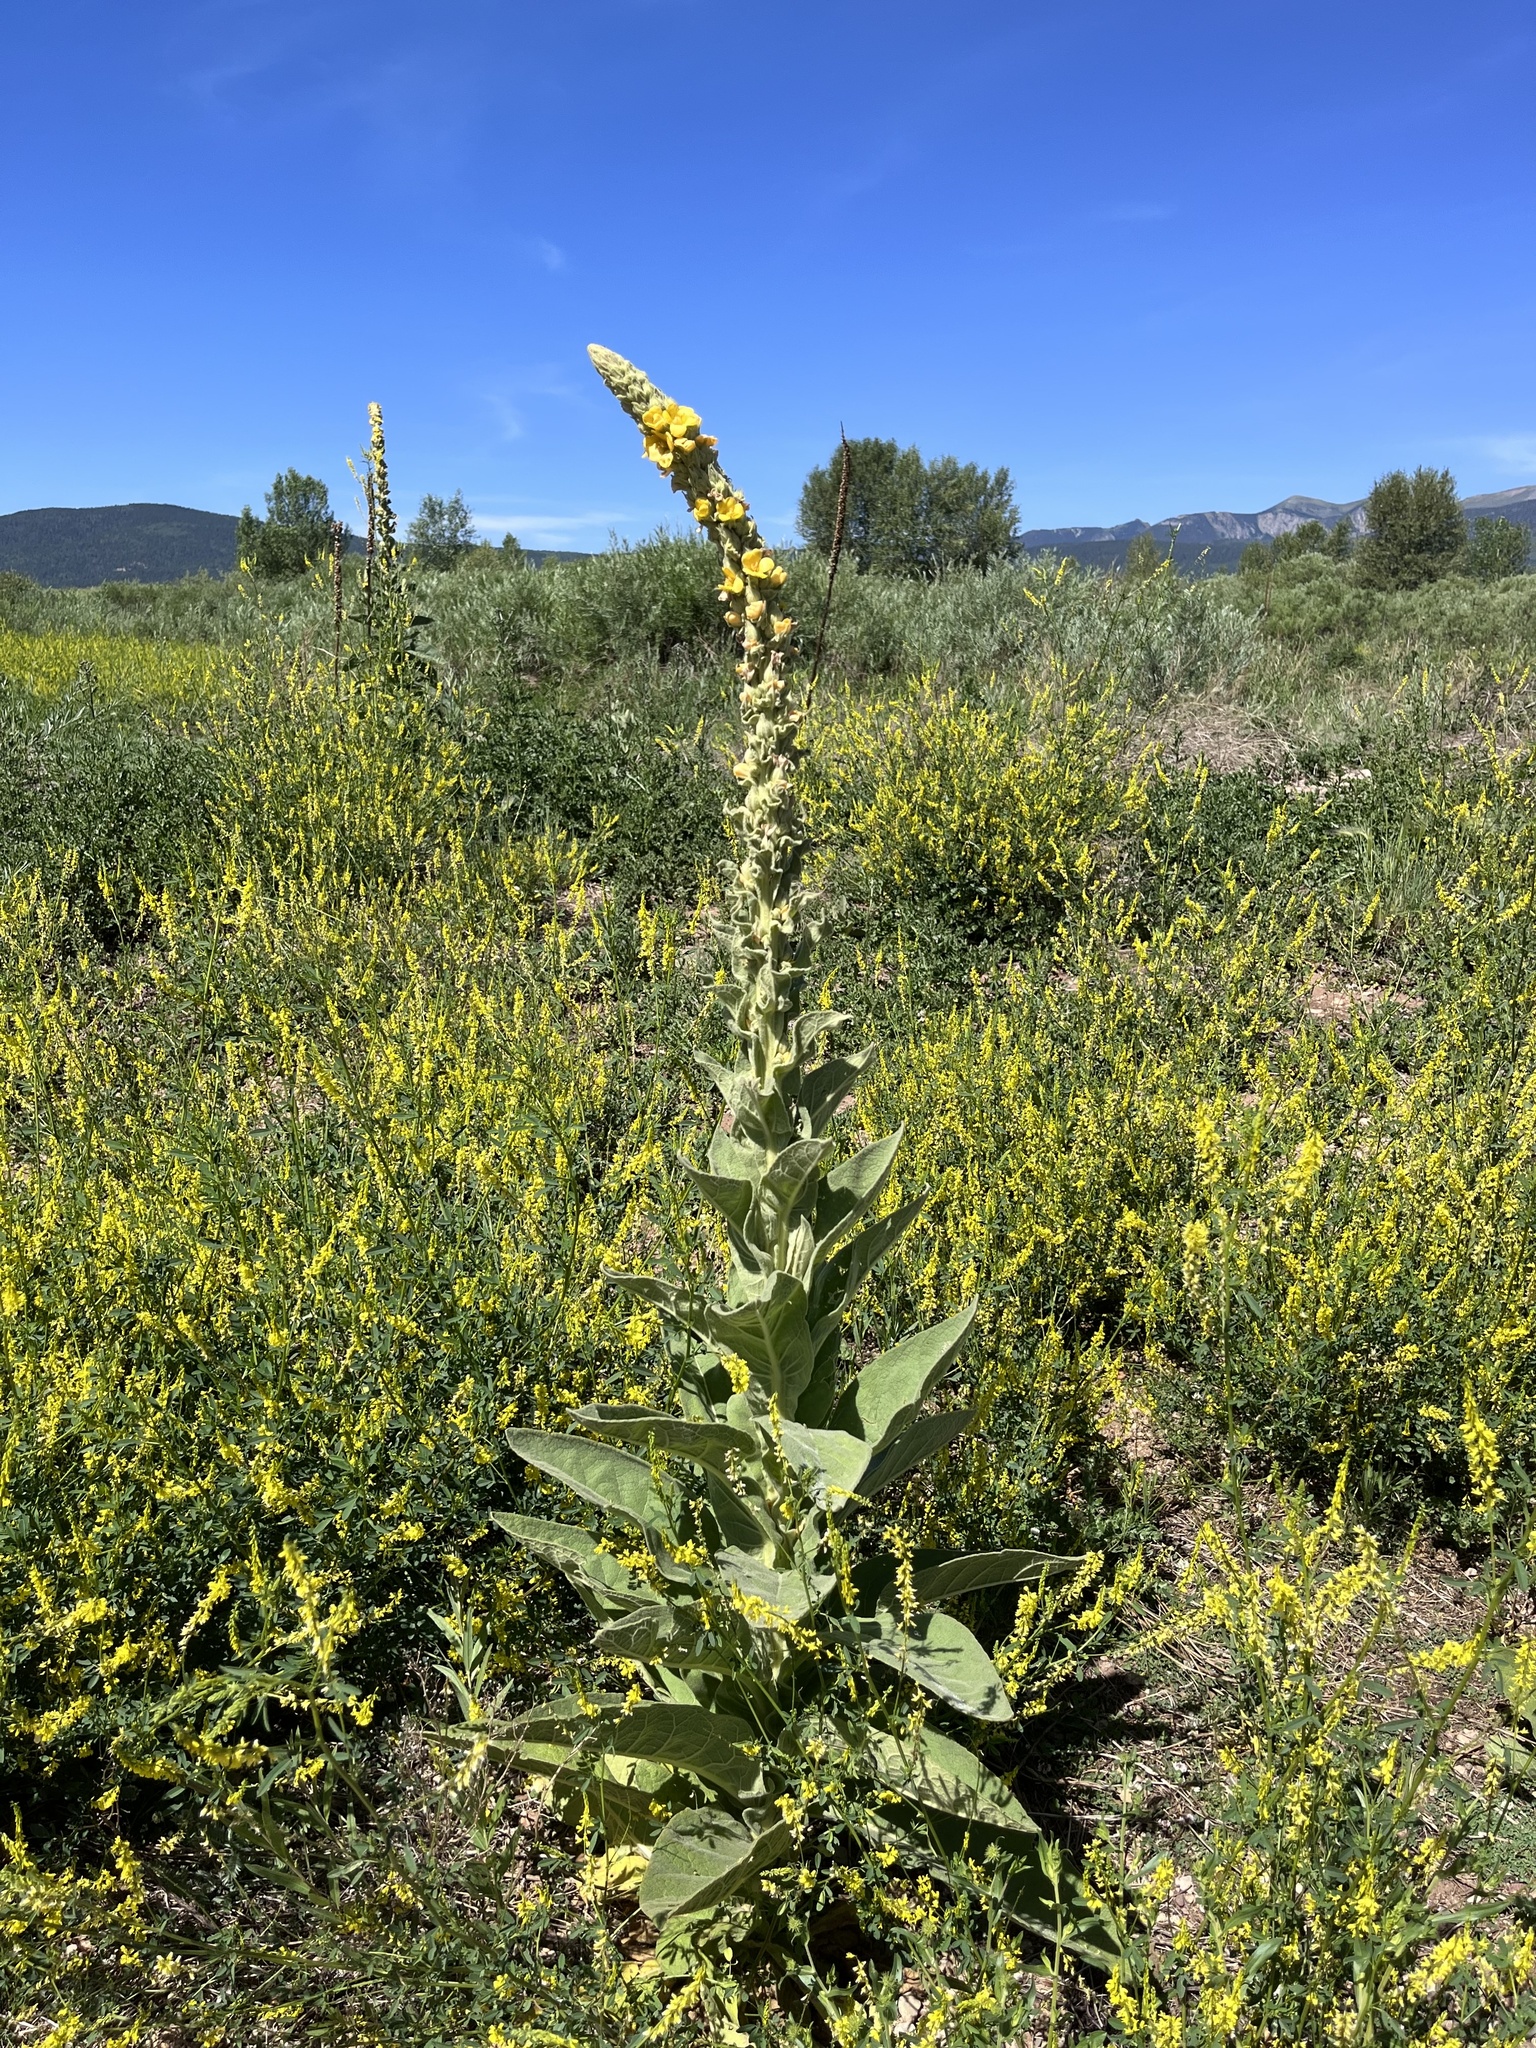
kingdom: Plantae
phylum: Tracheophyta
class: Magnoliopsida
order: Lamiales
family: Scrophulariaceae
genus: Verbascum
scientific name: Verbascum thapsus
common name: Common mullein
